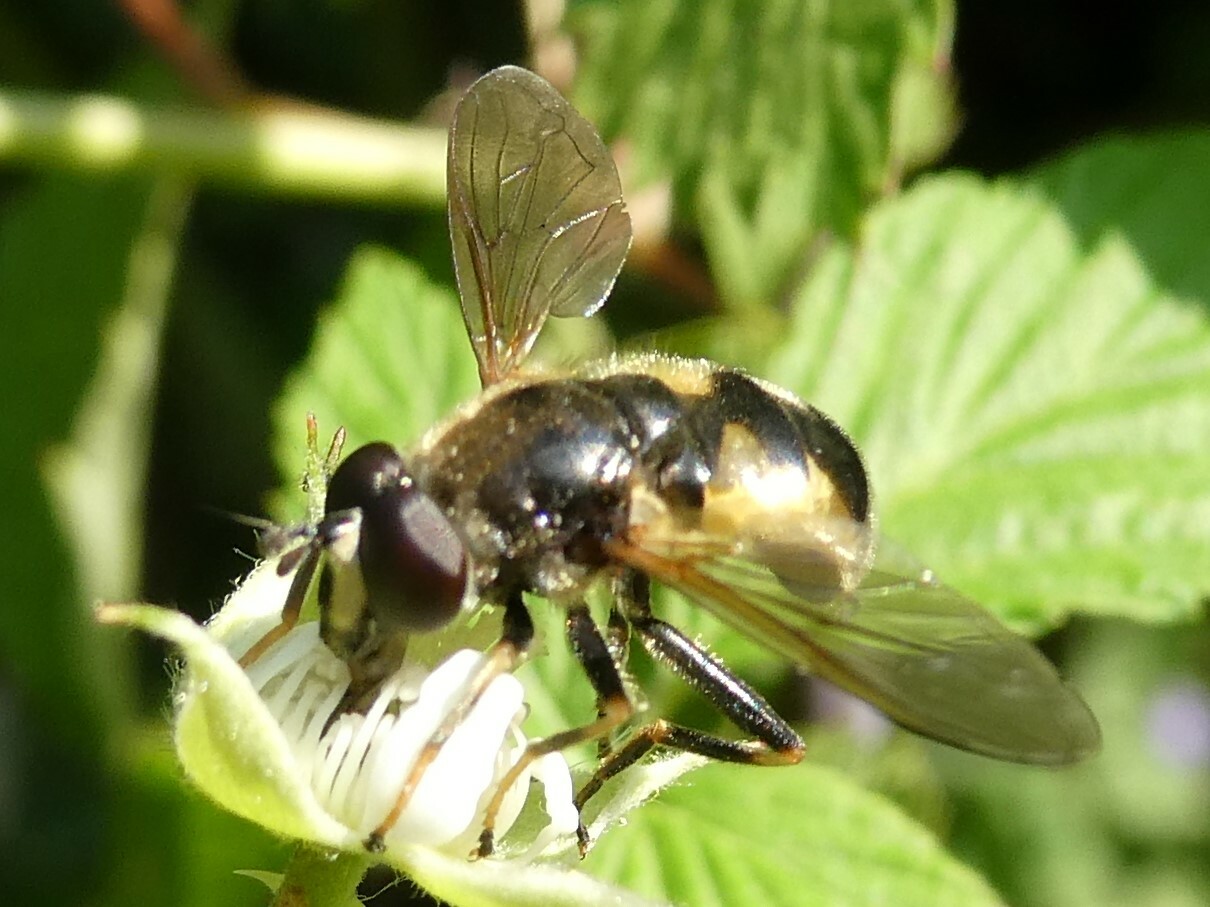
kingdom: Animalia
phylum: Arthropoda
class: Insecta
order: Diptera
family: Syrphidae
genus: Blera
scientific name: Blera confusa
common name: Confusing wood fly
